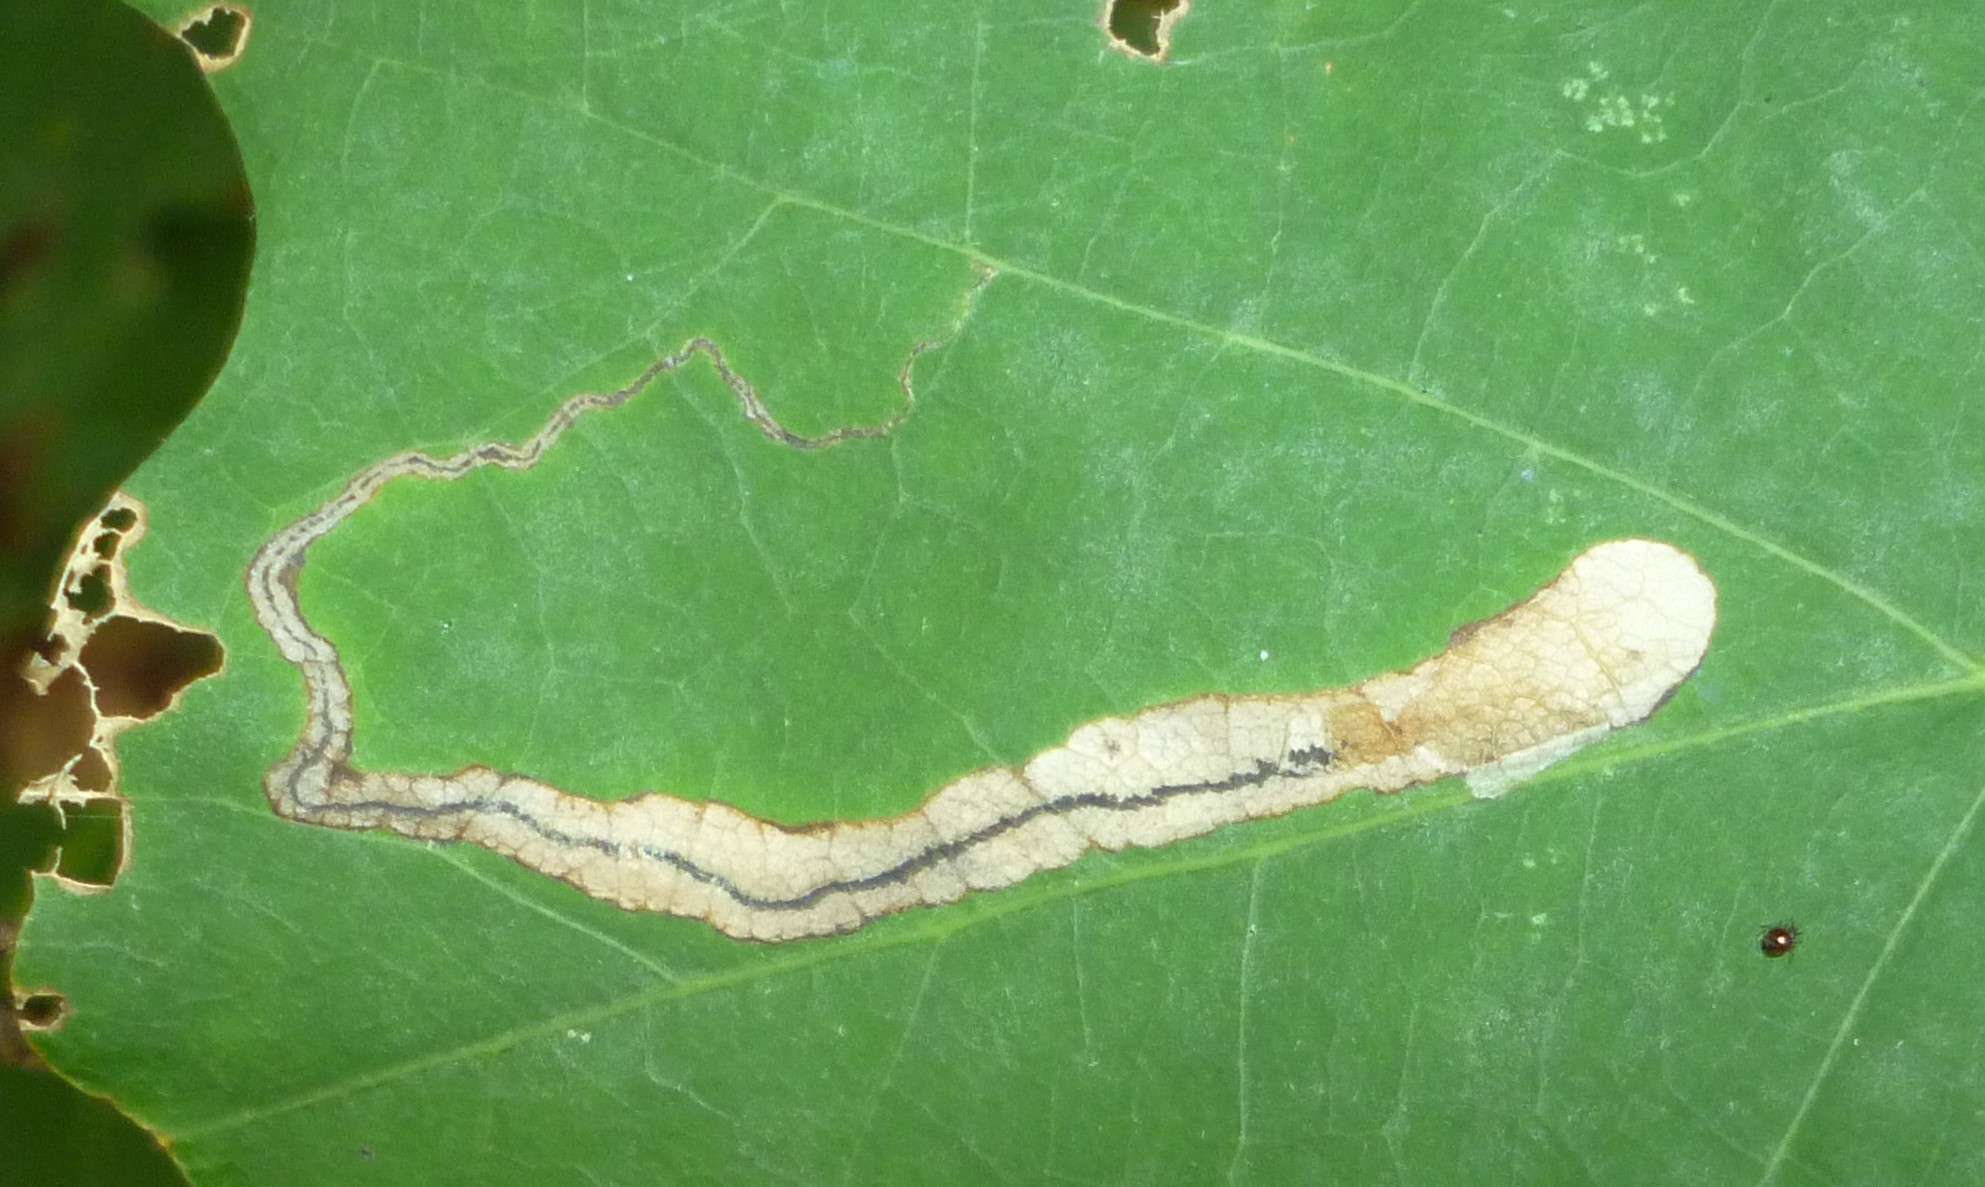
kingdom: Animalia
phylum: Arthropoda
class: Insecta
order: Lepidoptera
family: Nepticulidae
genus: Stigmella
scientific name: Stigmella quercipulchella
